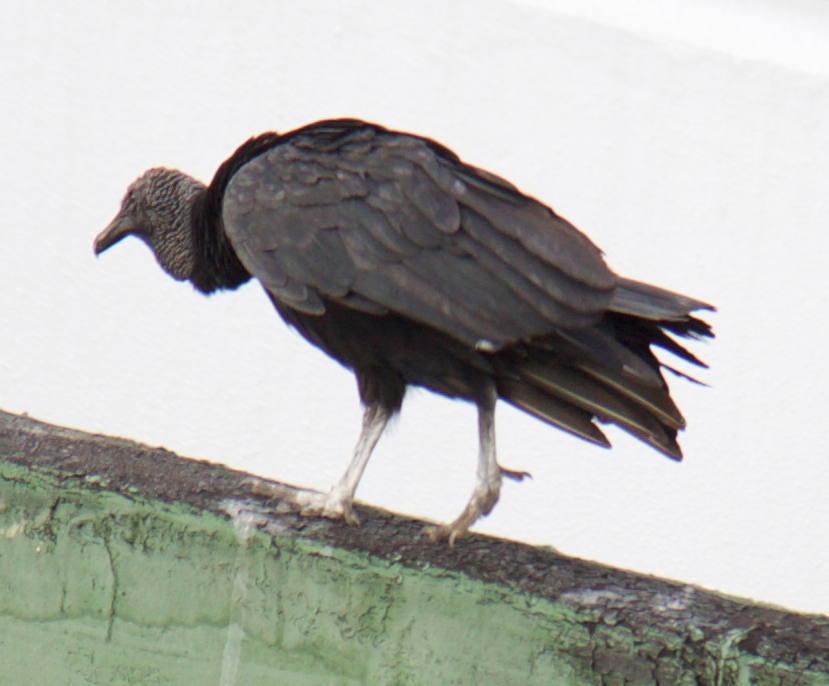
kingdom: Animalia
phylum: Chordata
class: Aves
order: Accipitriformes
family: Cathartidae
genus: Coragyps
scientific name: Coragyps atratus
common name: Black vulture
